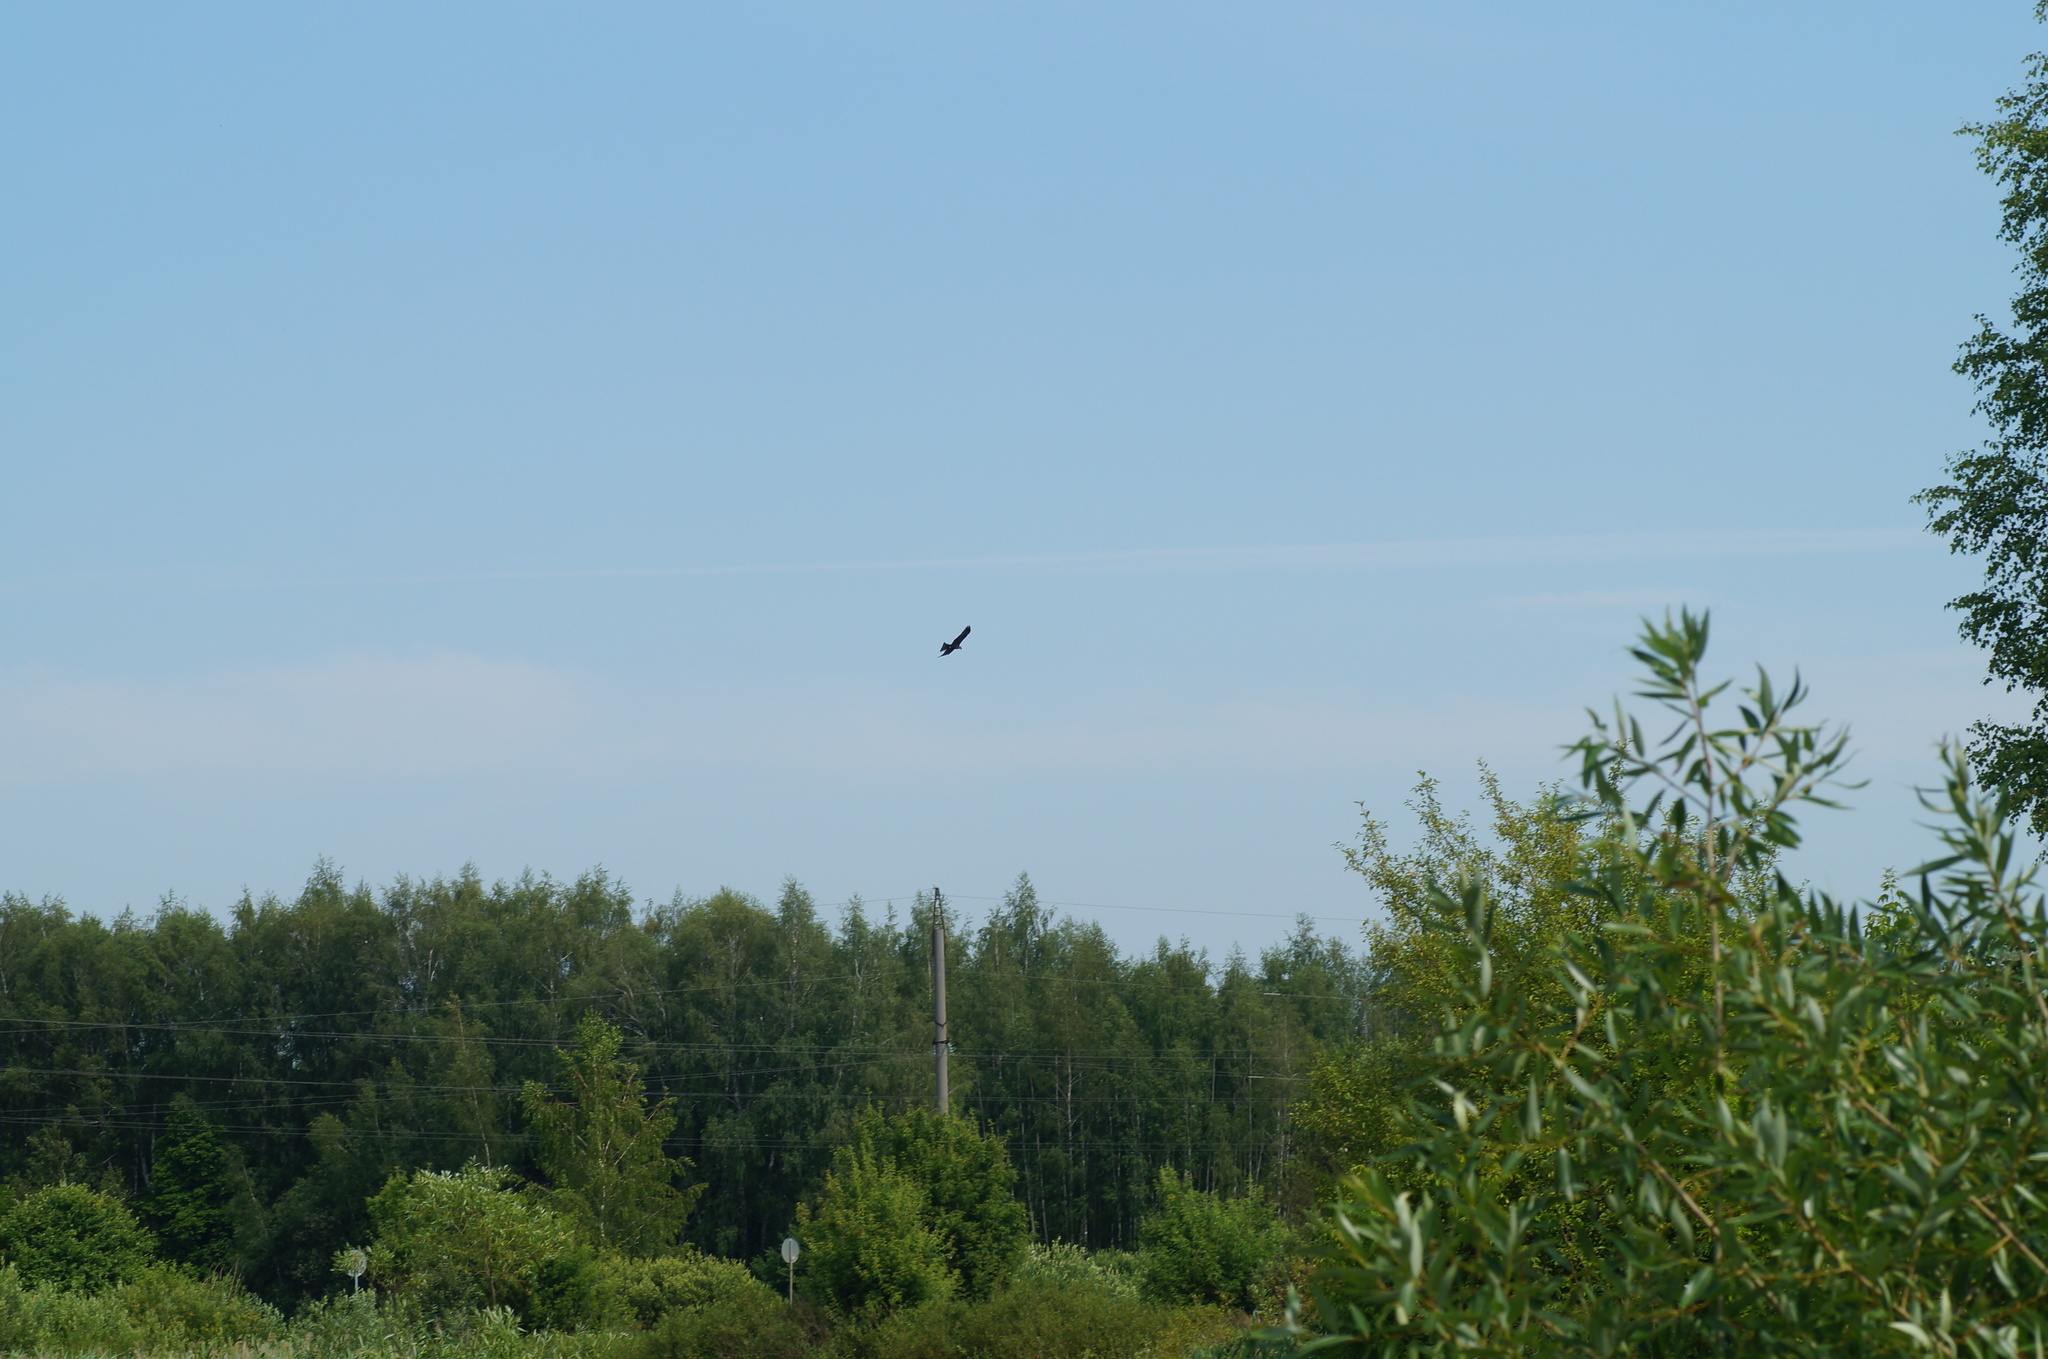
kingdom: Animalia
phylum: Chordata
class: Aves
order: Accipitriformes
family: Accipitridae
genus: Milvus
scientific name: Milvus migrans
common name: Black kite
